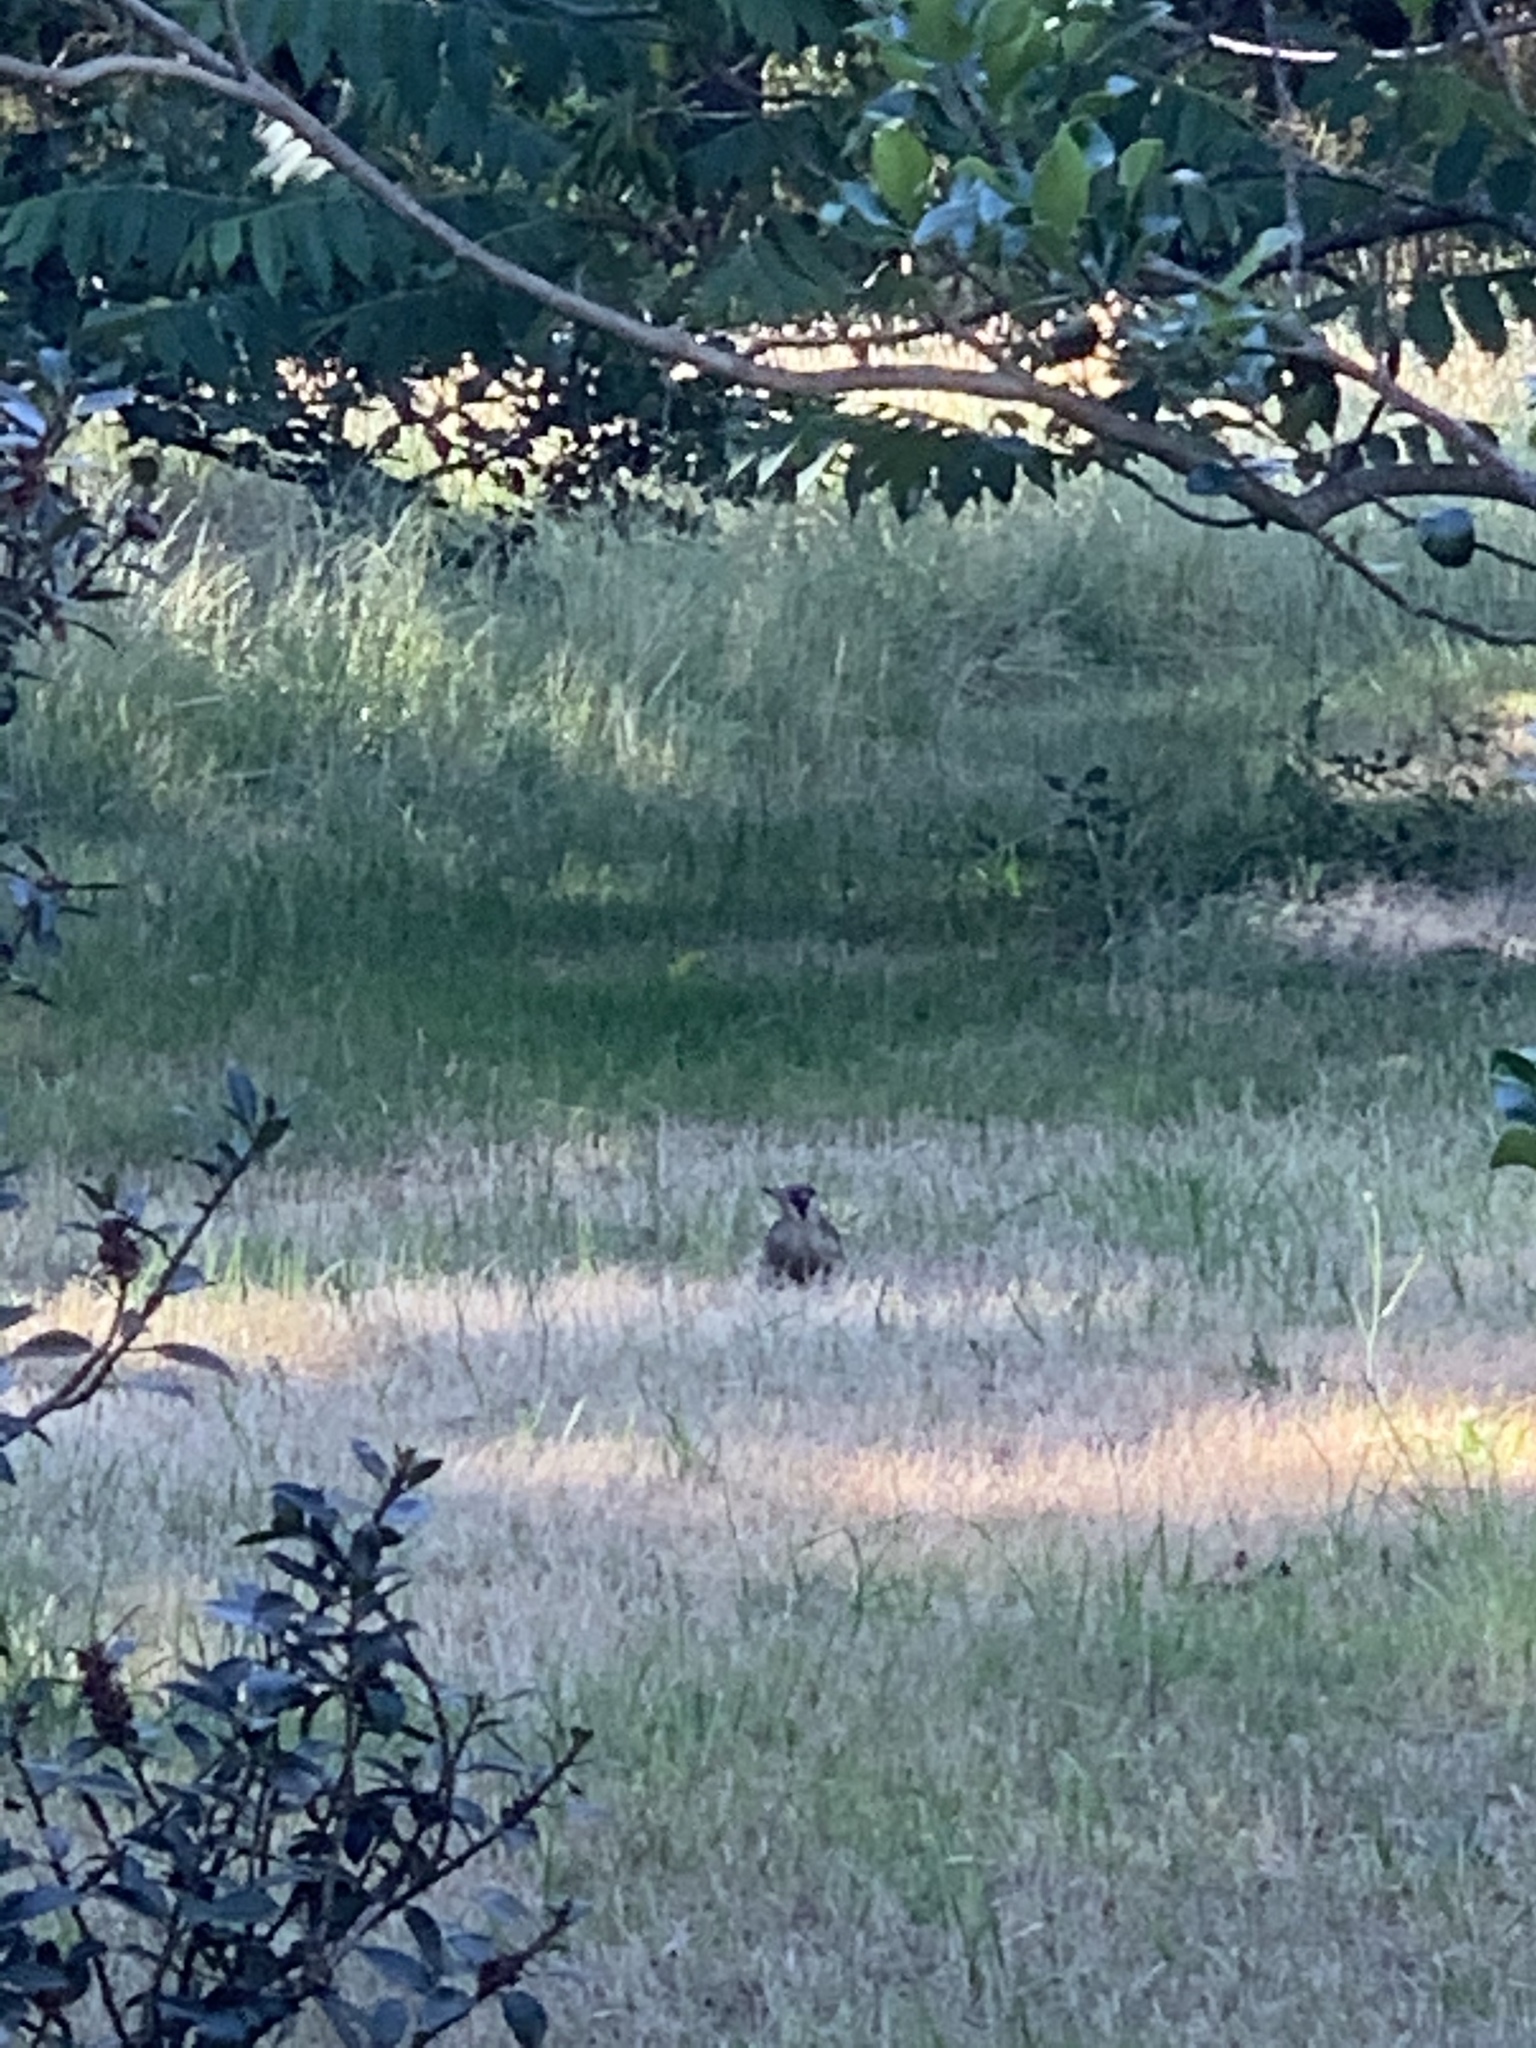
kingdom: Animalia
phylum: Chordata
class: Aves
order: Piciformes
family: Picidae
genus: Picus
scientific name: Picus viridis
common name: European green woodpecker
